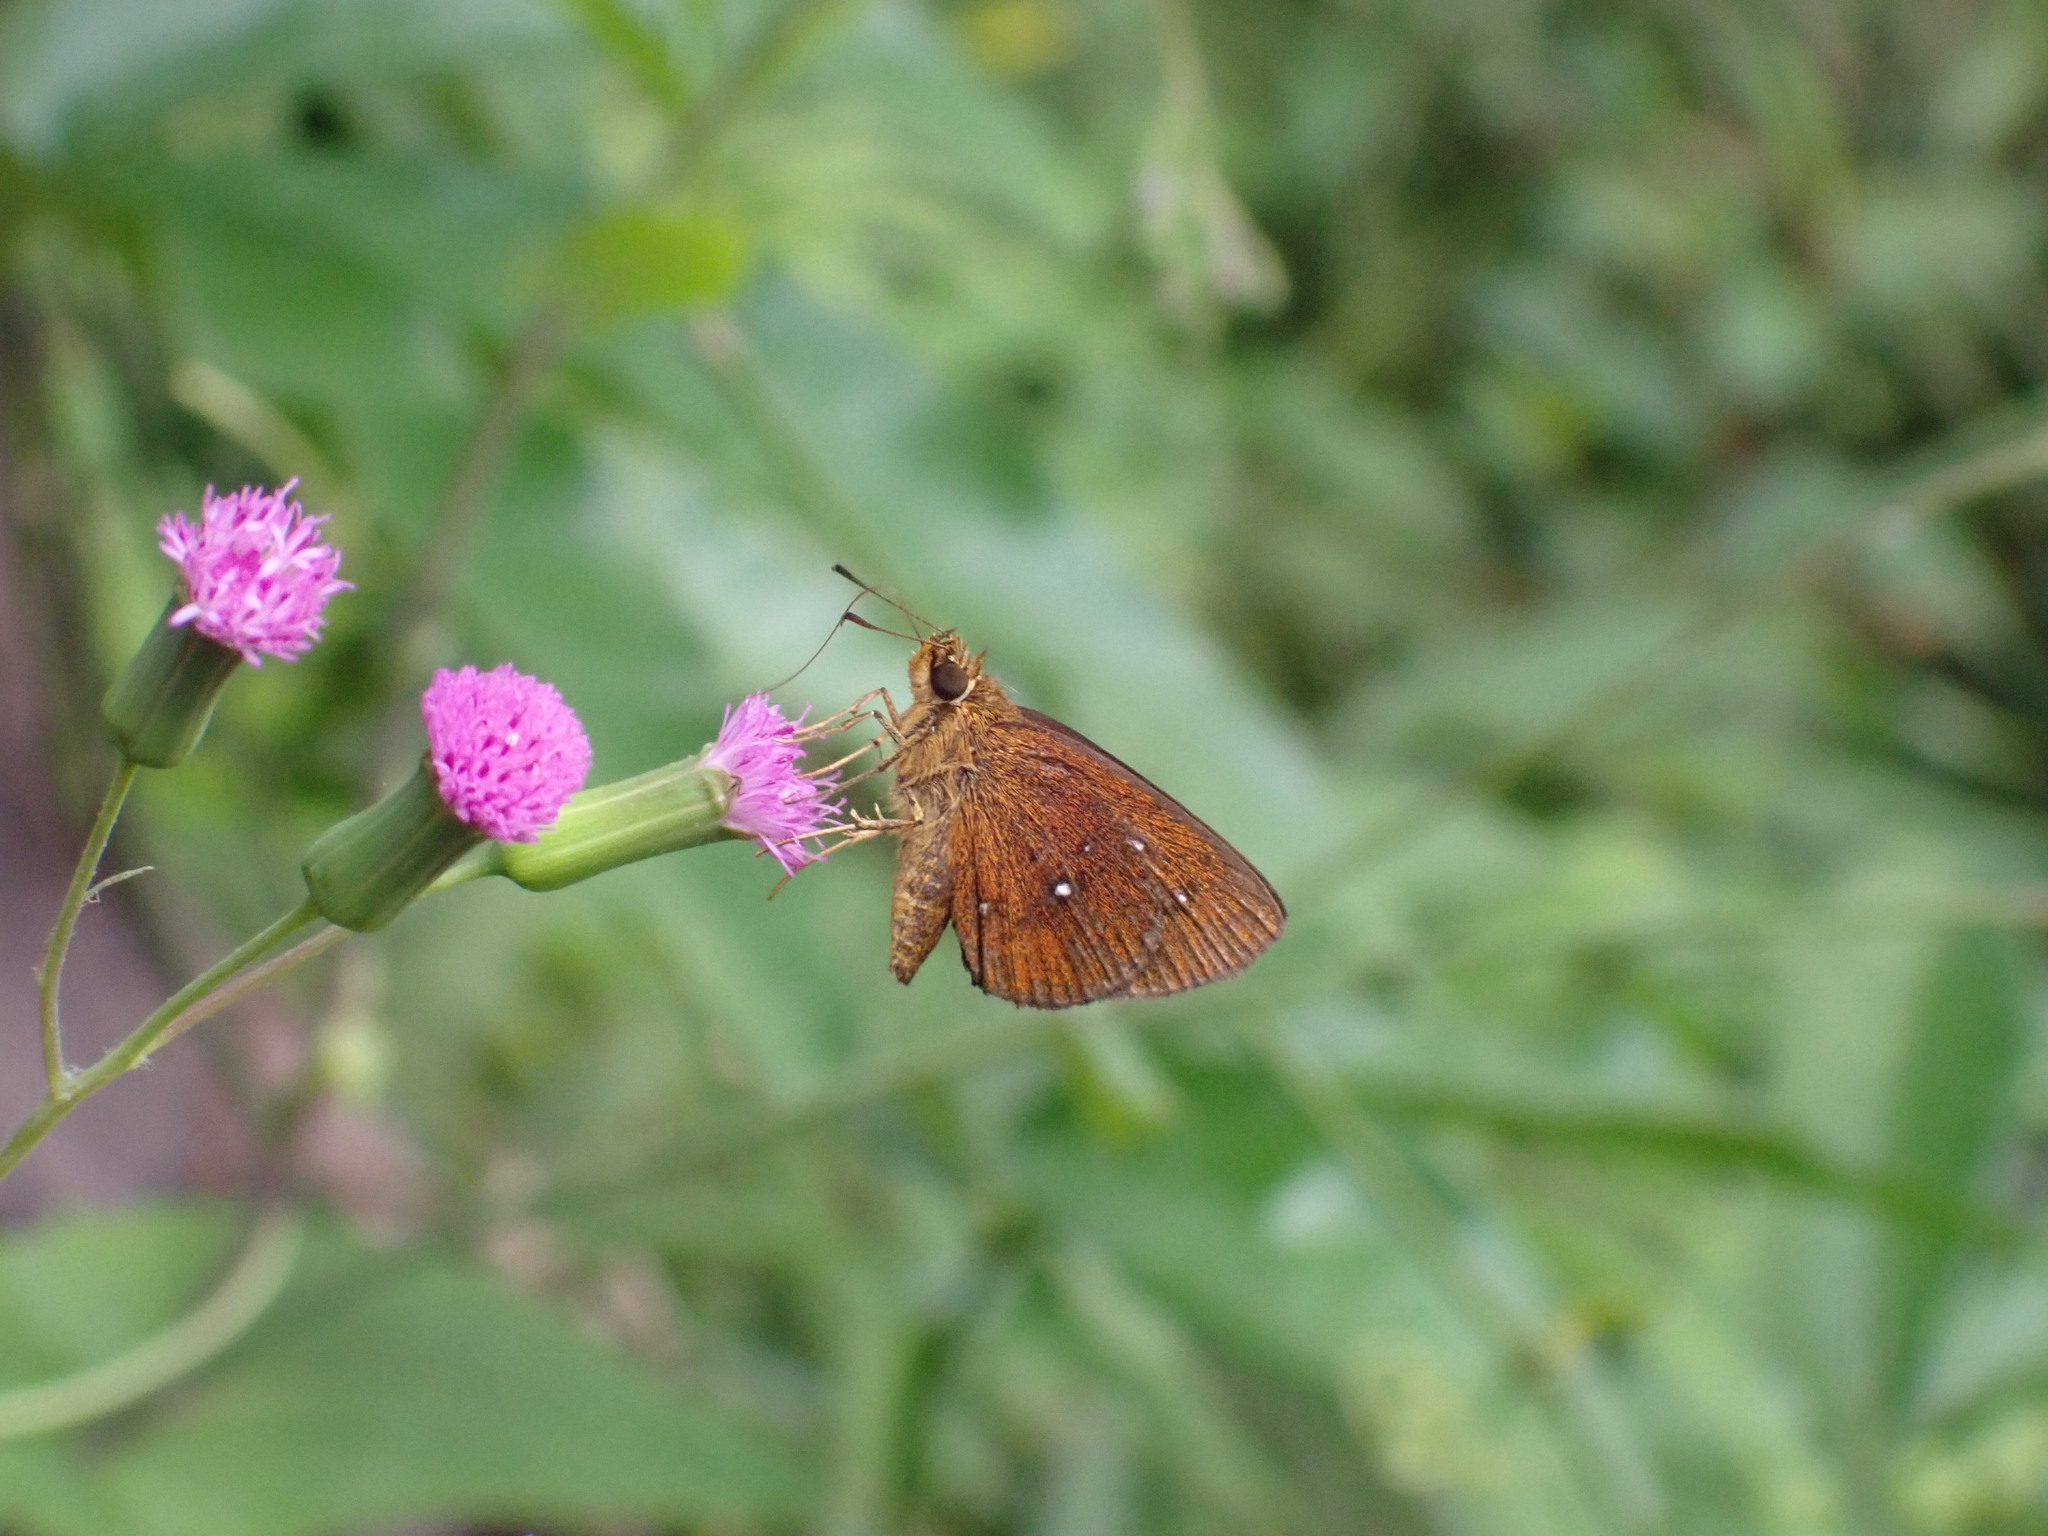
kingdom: Animalia
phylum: Arthropoda
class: Insecta
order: Lepidoptera
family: Hesperiidae
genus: Iambrix
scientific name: Iambrix salsala
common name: Chestnut bob
